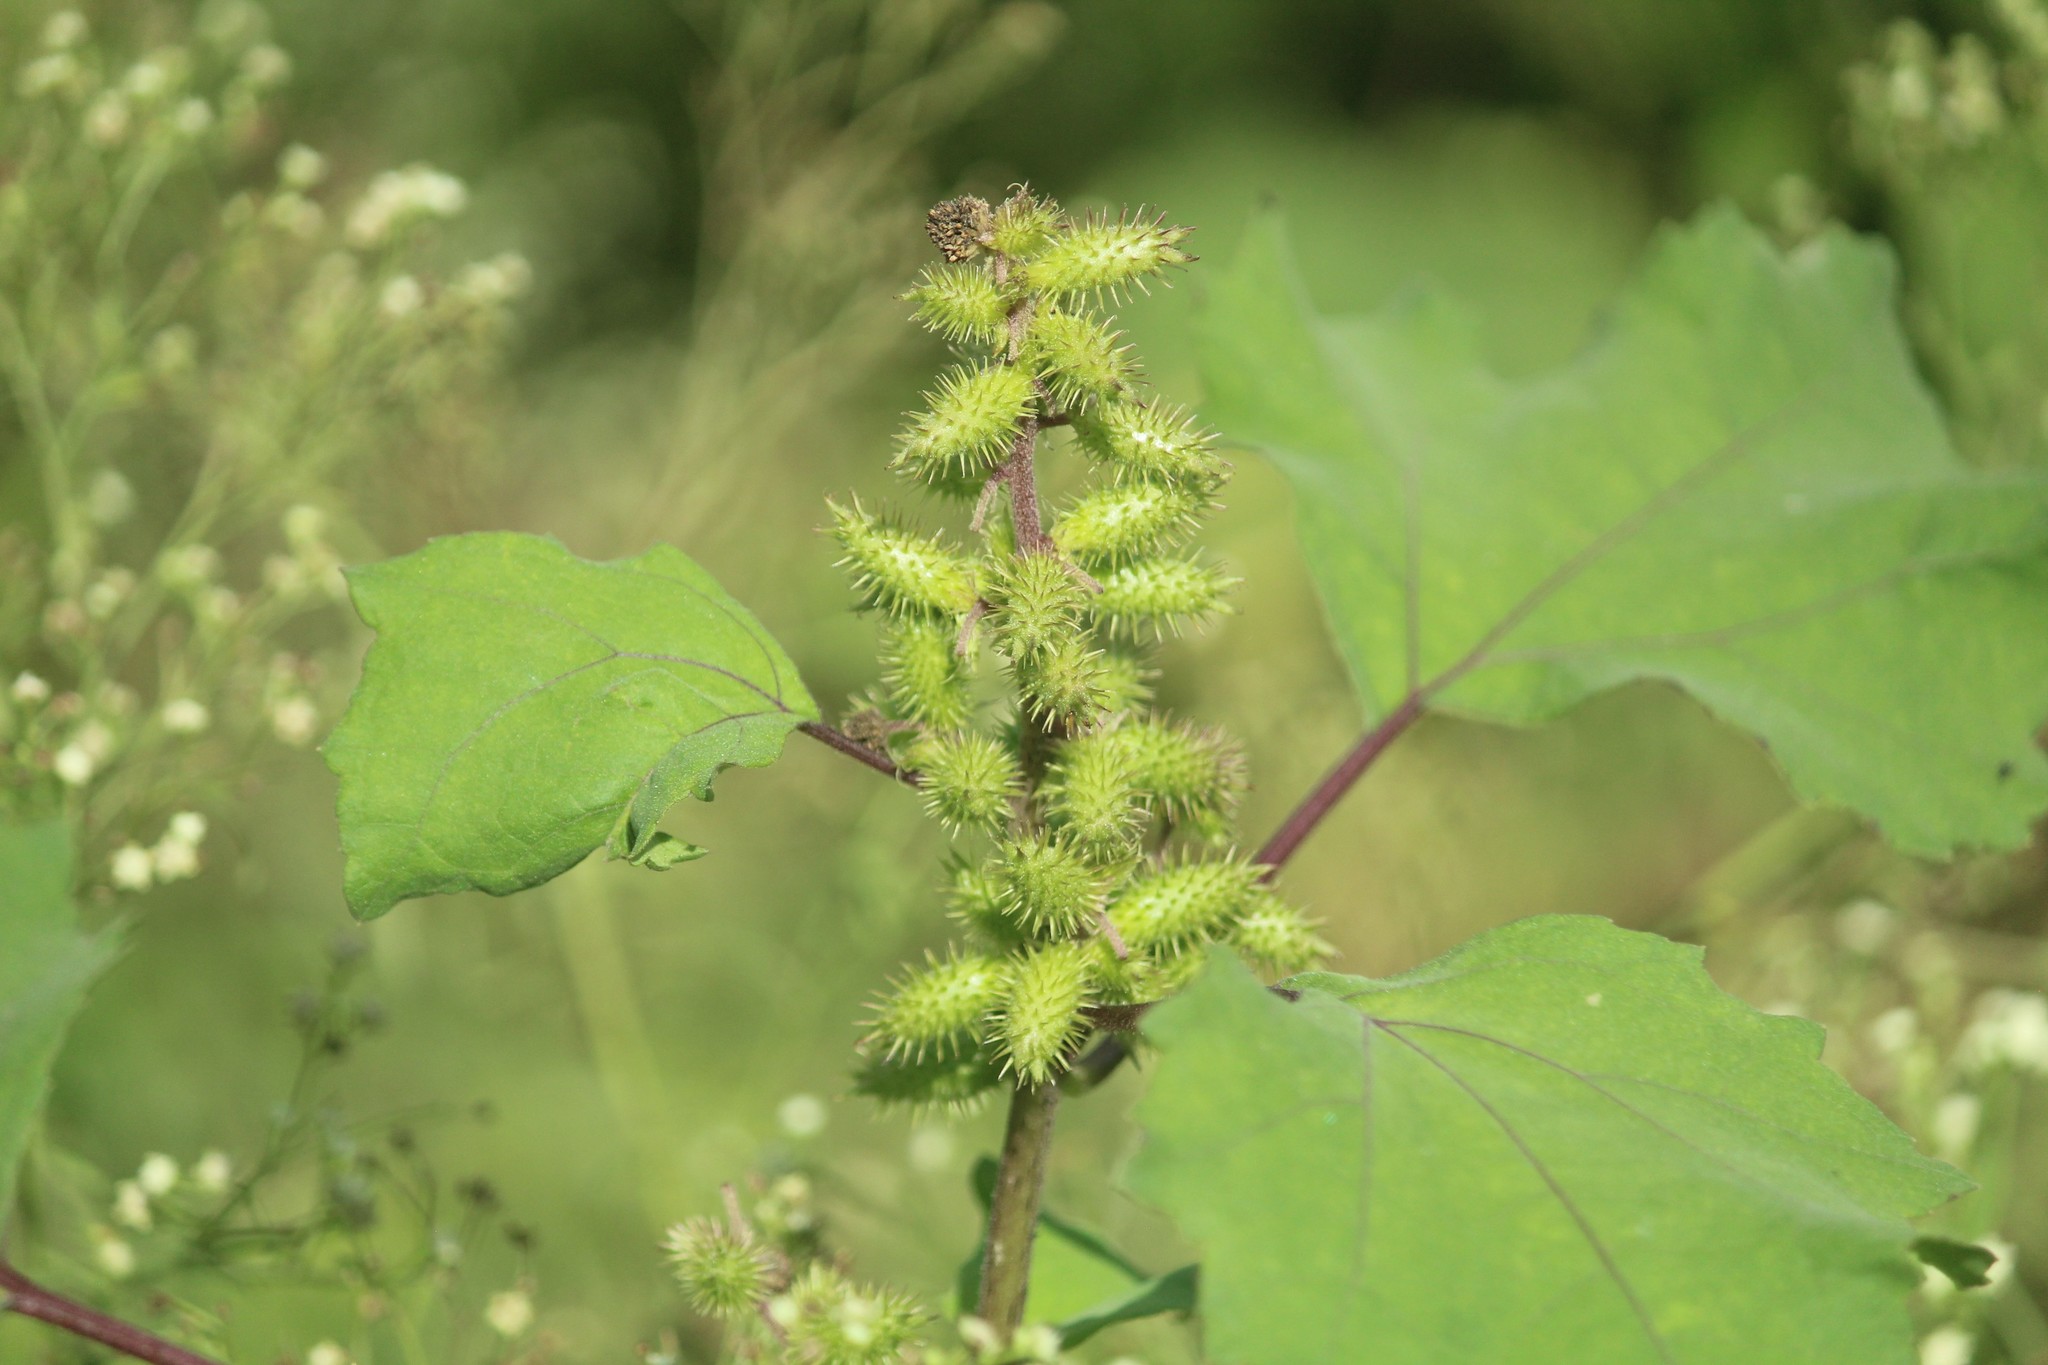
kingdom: Plantae
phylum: Tracheophyta
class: Magnoliopsida
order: Asterales
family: Asteraceae
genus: Xanthium
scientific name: Xanthium strumarium
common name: Rough cocklebur
